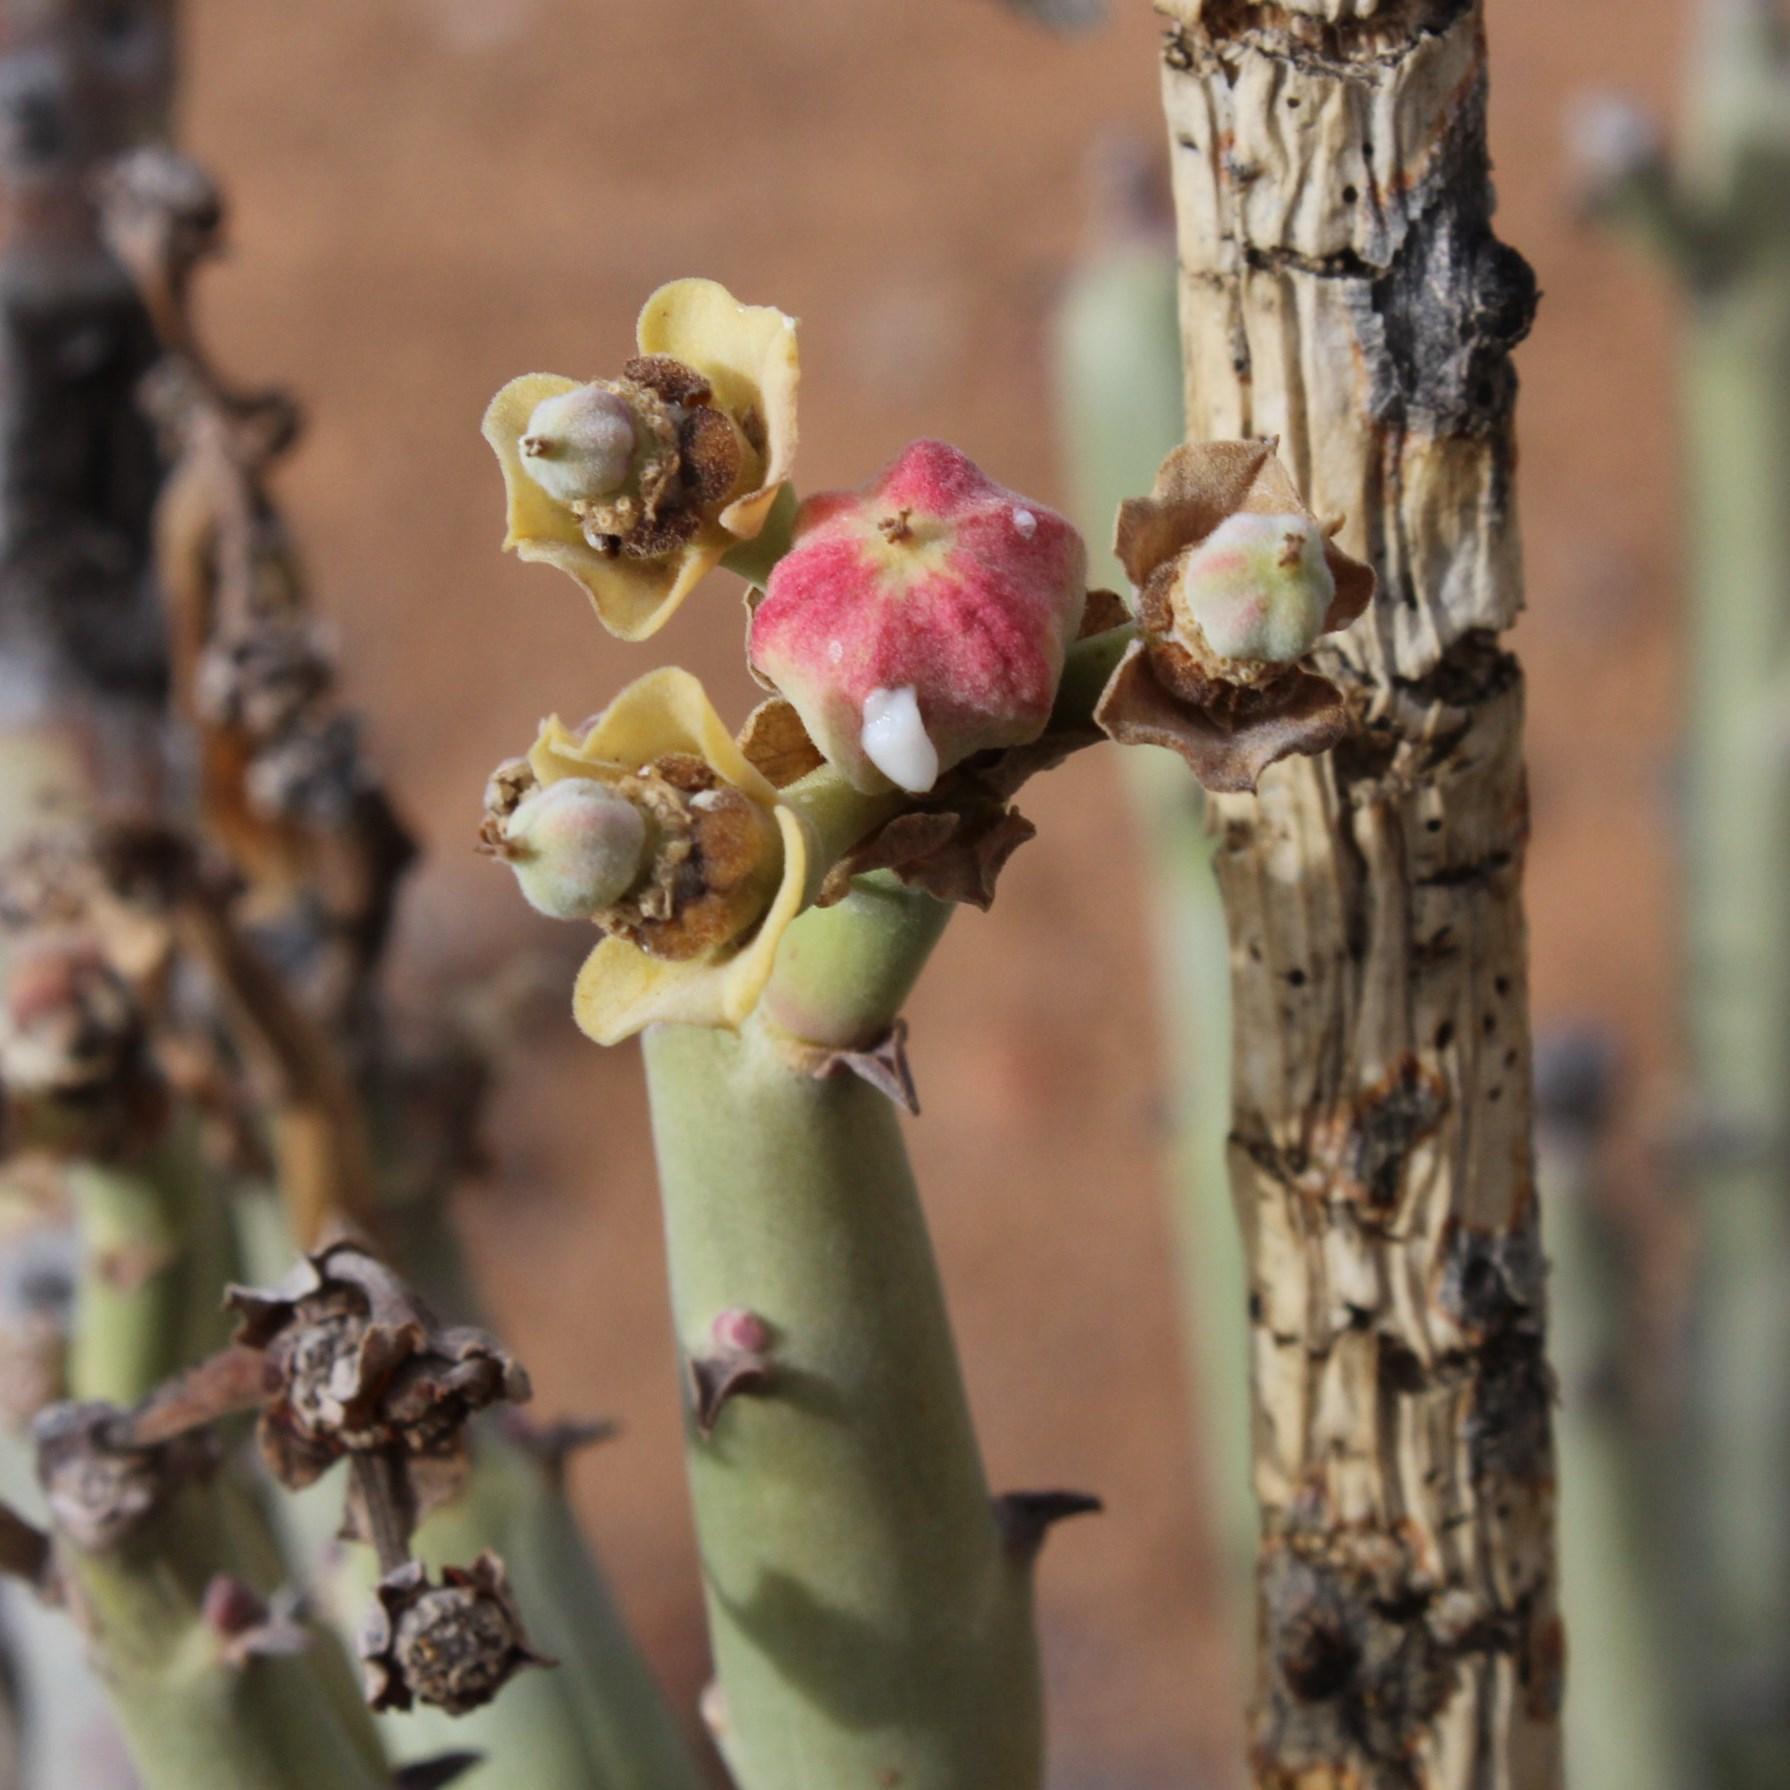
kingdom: Plantae
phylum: Tracheophyta
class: Magnoliopsida
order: Malpighiales
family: Euphorbiaceae
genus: Euphorbia
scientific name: Euphorbia dregeana
